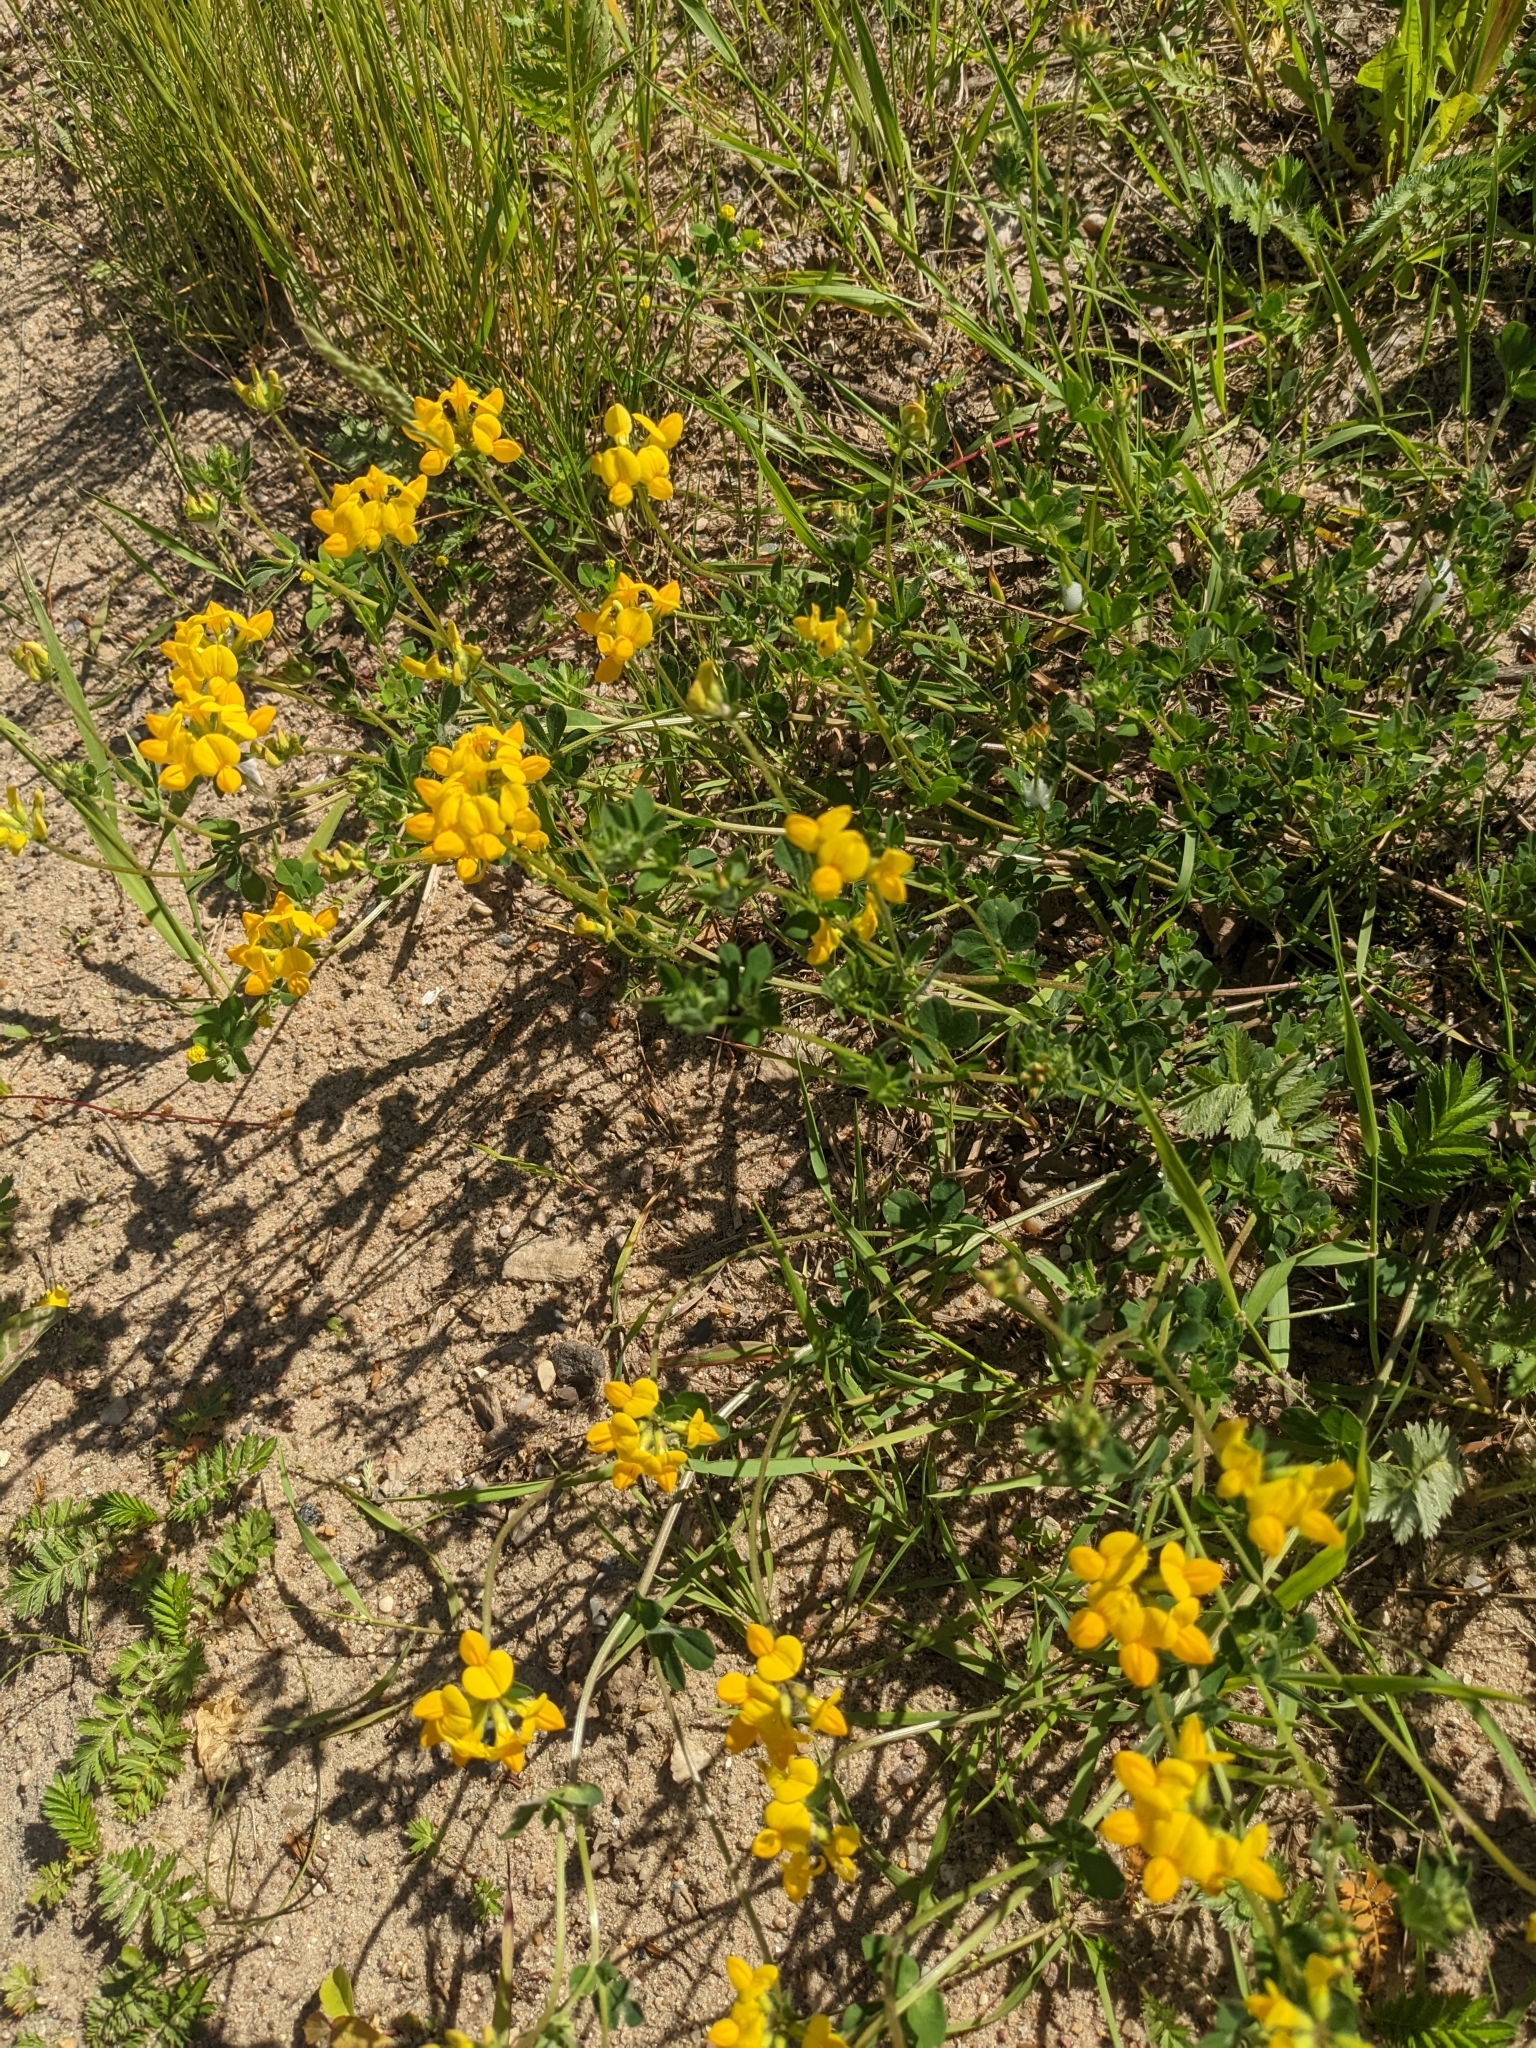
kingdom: Plantae
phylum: Tracheophyta
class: Magnoliopsida
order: Fabales
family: Fabaceae
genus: Lotus
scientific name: Lotus corniculatus
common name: Common bird's-foot-trefoil
